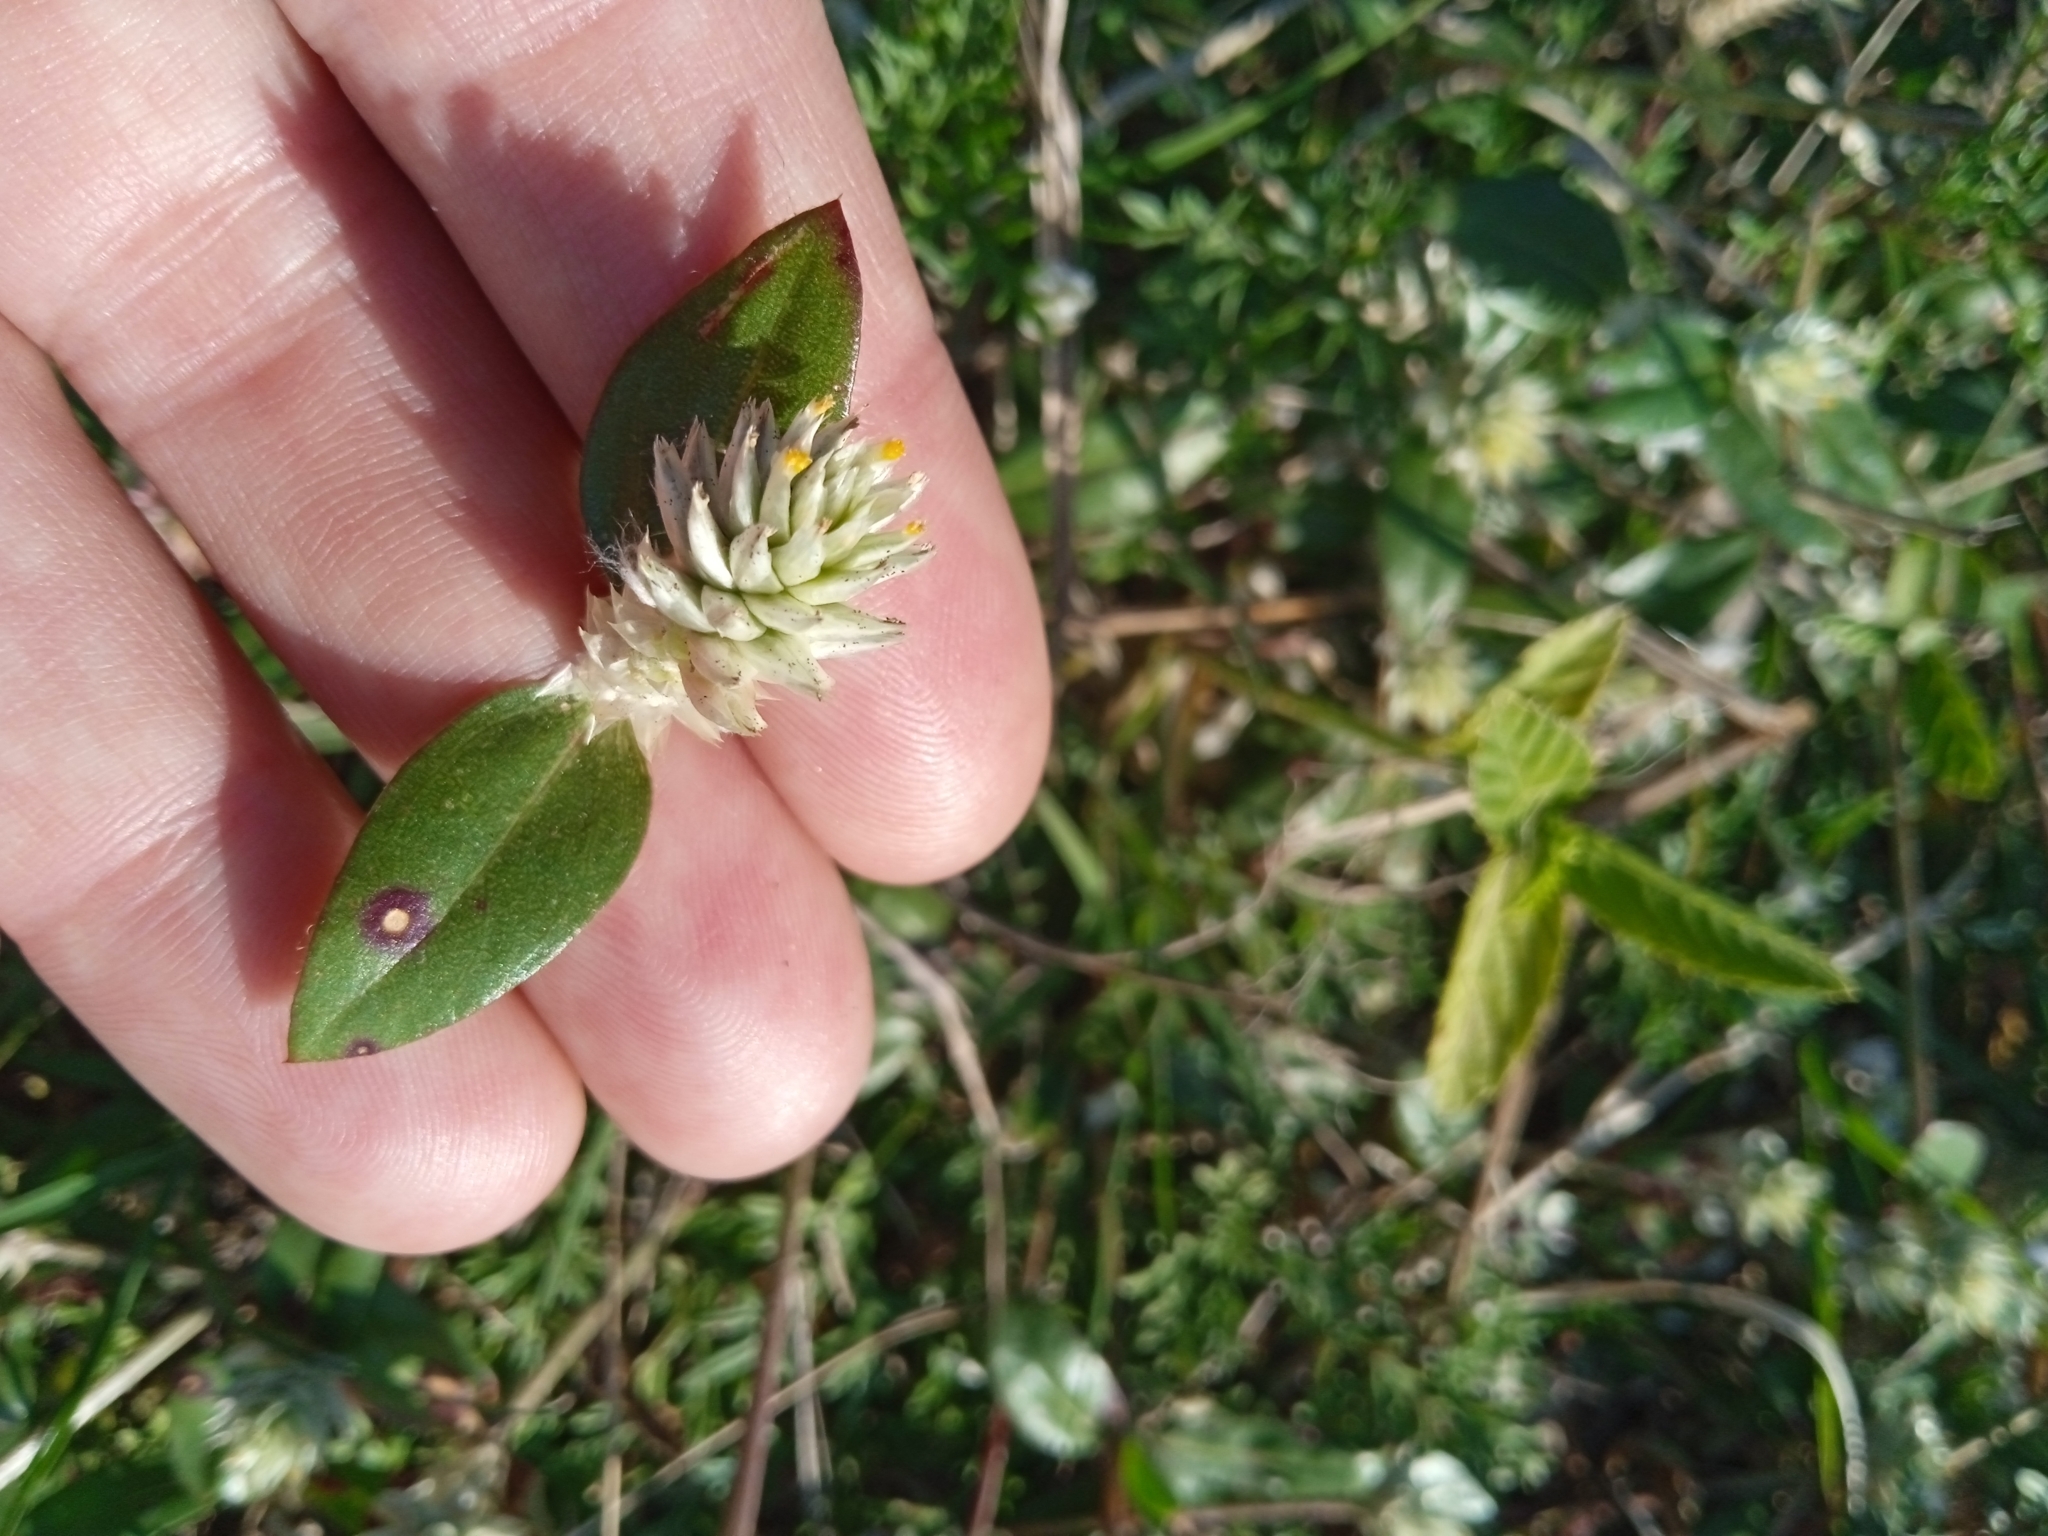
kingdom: Plantae
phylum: Tracheophyta
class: Magnoliopsida
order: Caryophyllales
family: Amaranthaceae
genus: Gomphrena
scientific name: Gomphrena celosioides
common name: Gomphrena-weed
